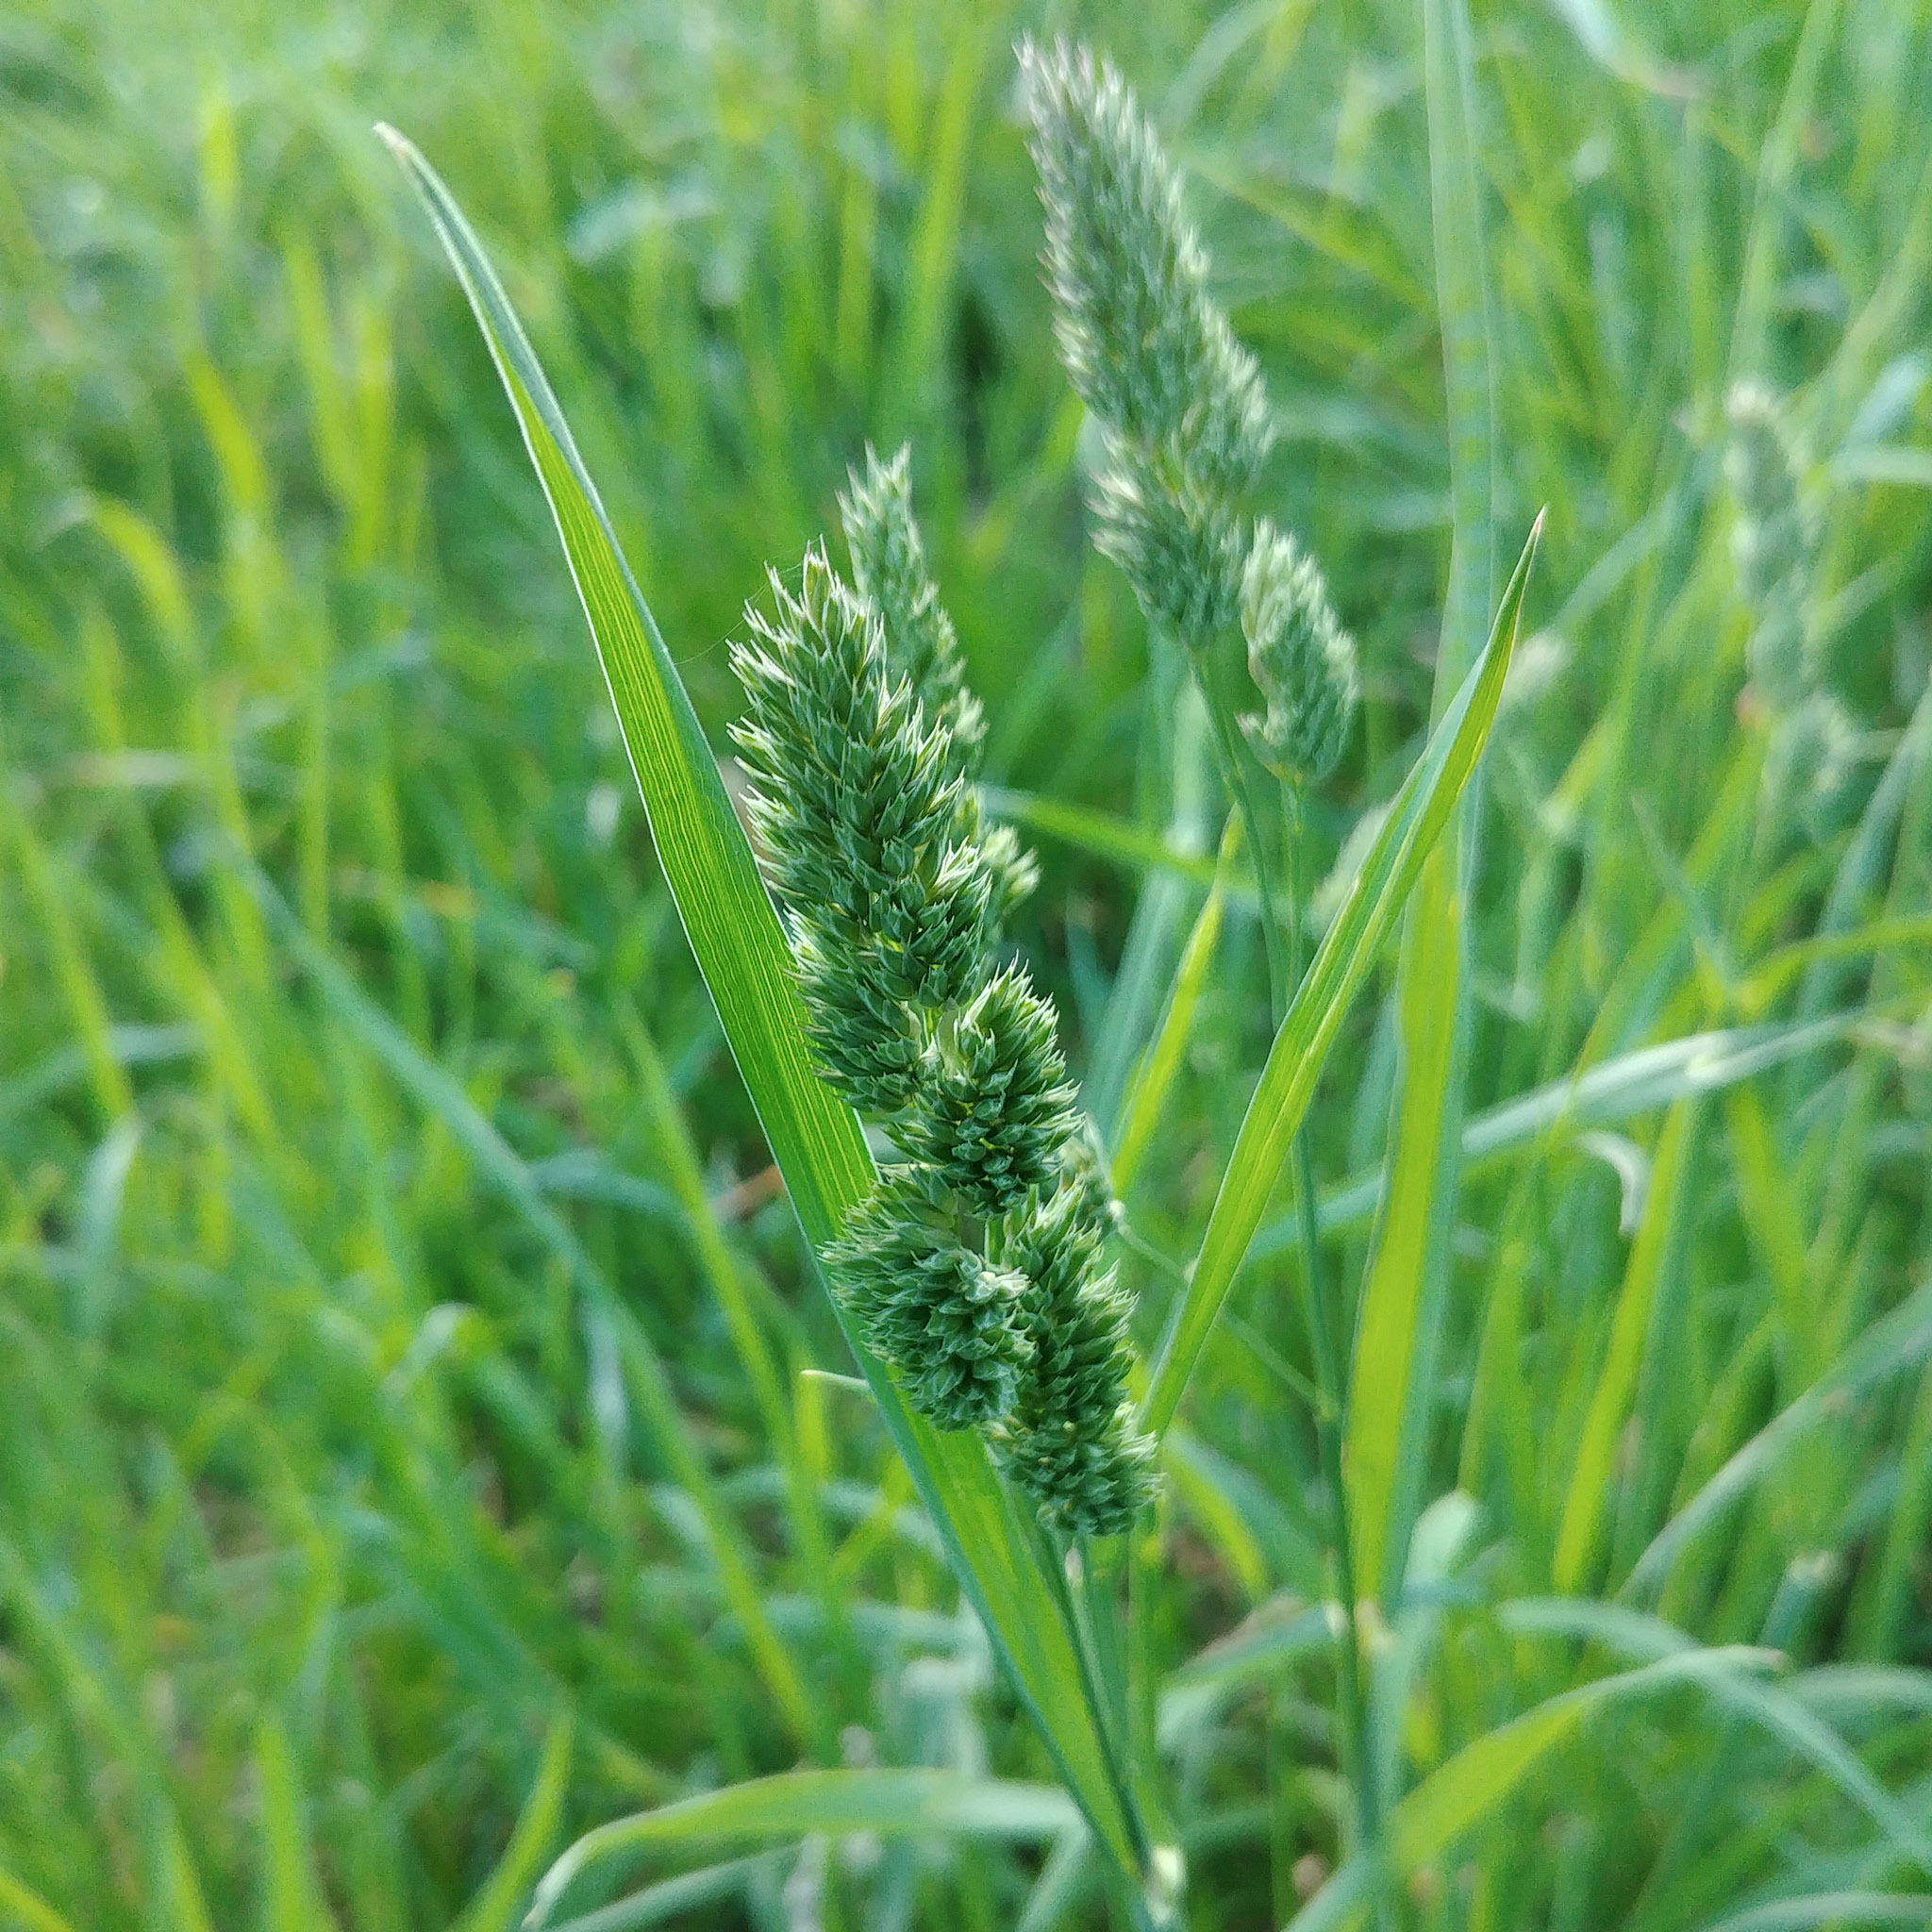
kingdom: Plantae
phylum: Tracheophyta
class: Liliopsida
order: Poales
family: Poaceae
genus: Dactylis
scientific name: Dactylis glomerata
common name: Orchardgrass
